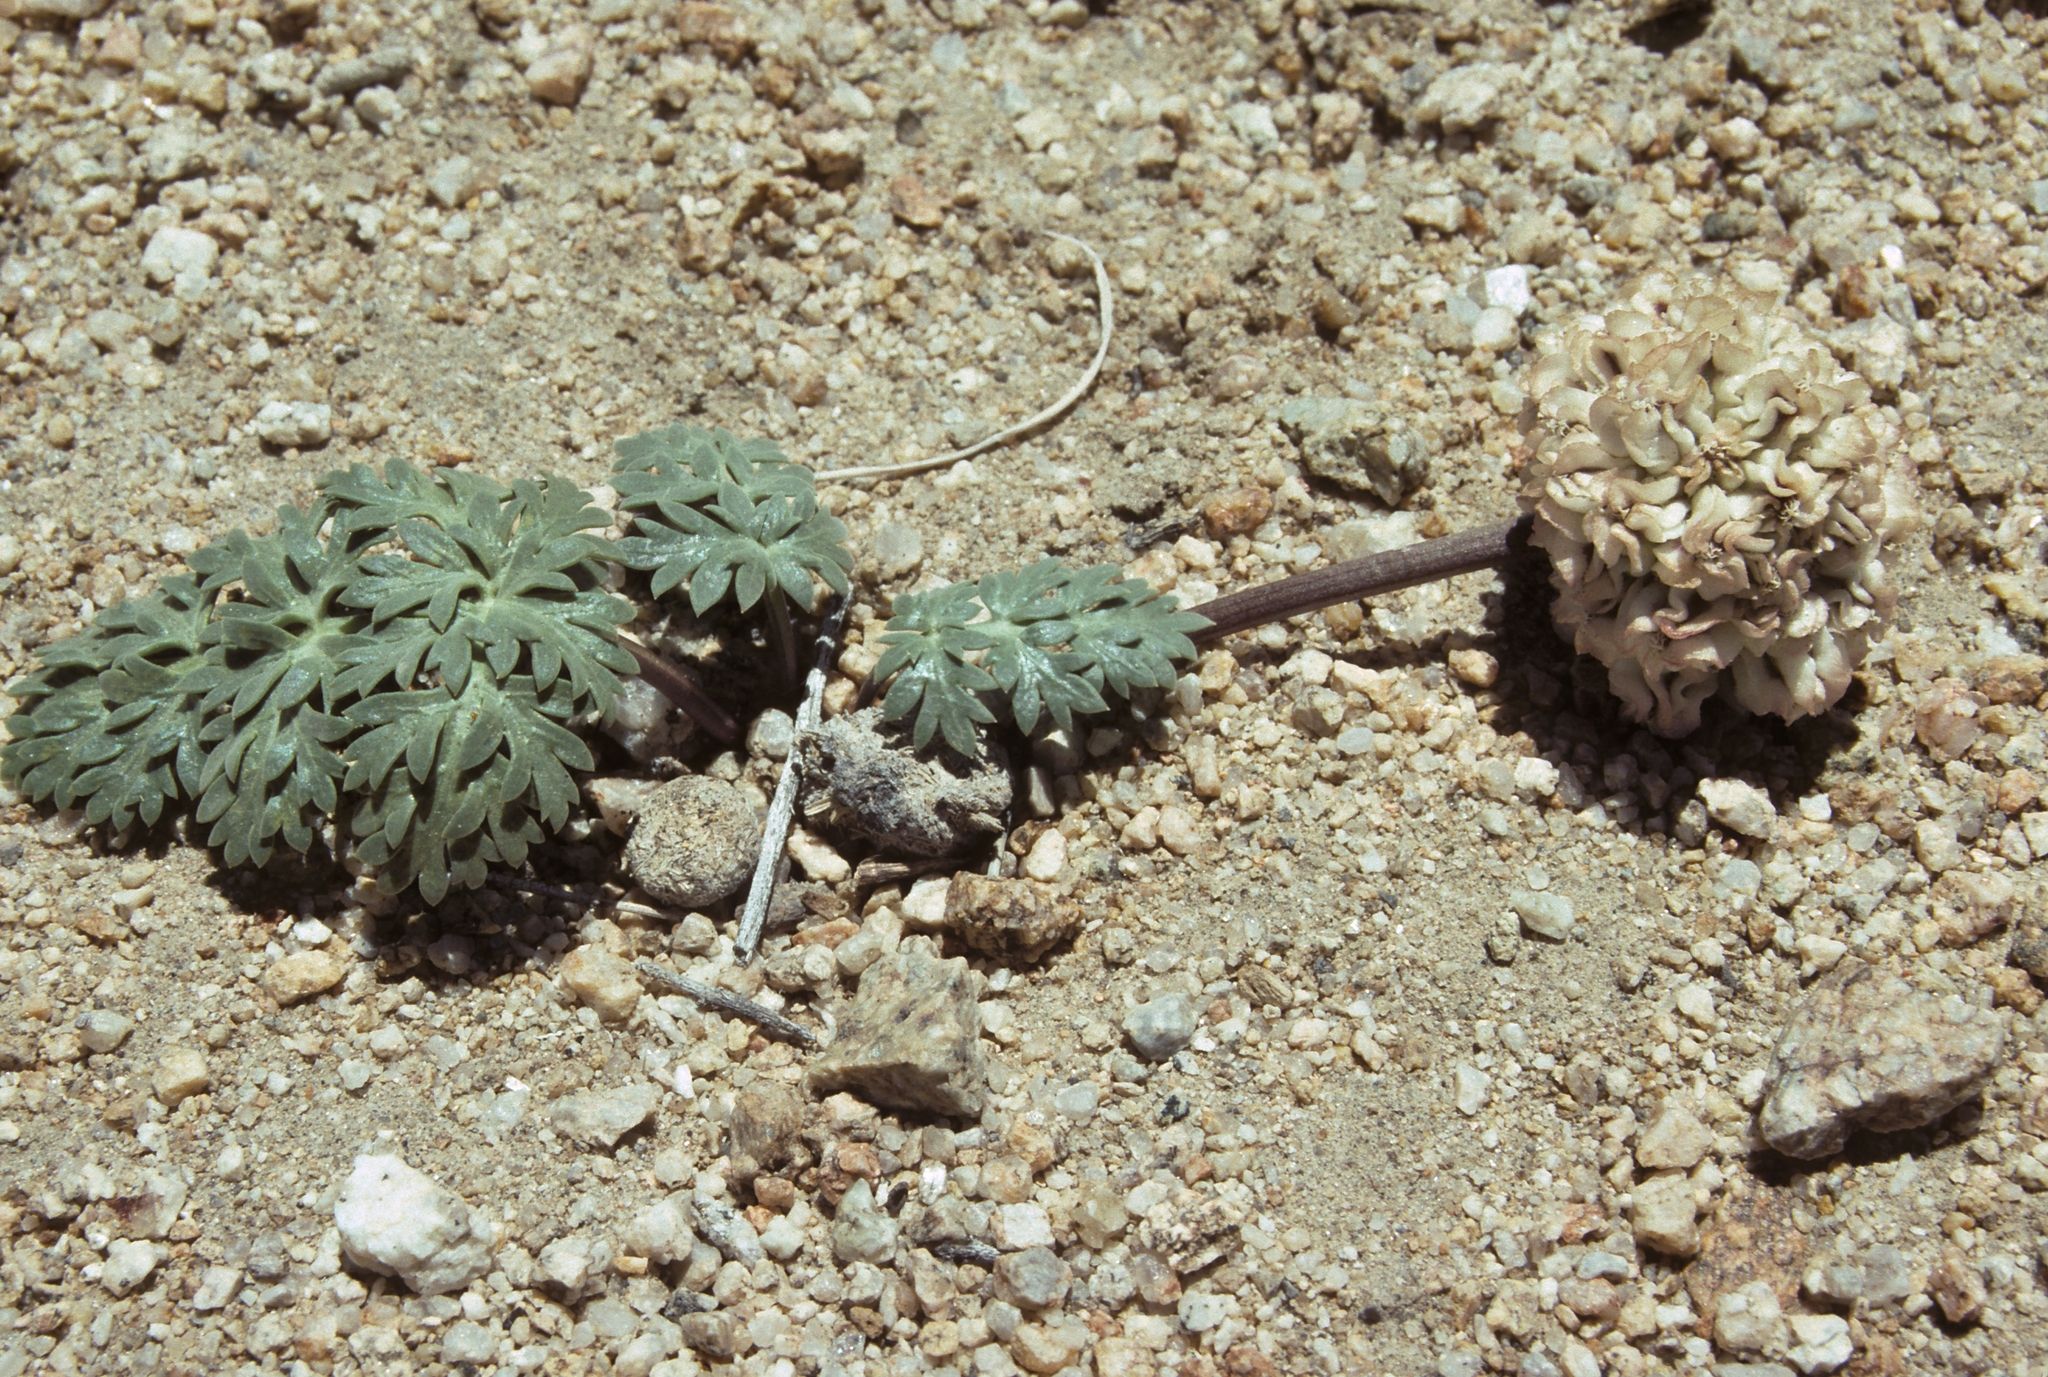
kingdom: Plantae
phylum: Tracheophyta
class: Magnoliopsida
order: Apiales
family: Apiaceae
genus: Cymopterus
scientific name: Cymopterus globosus
